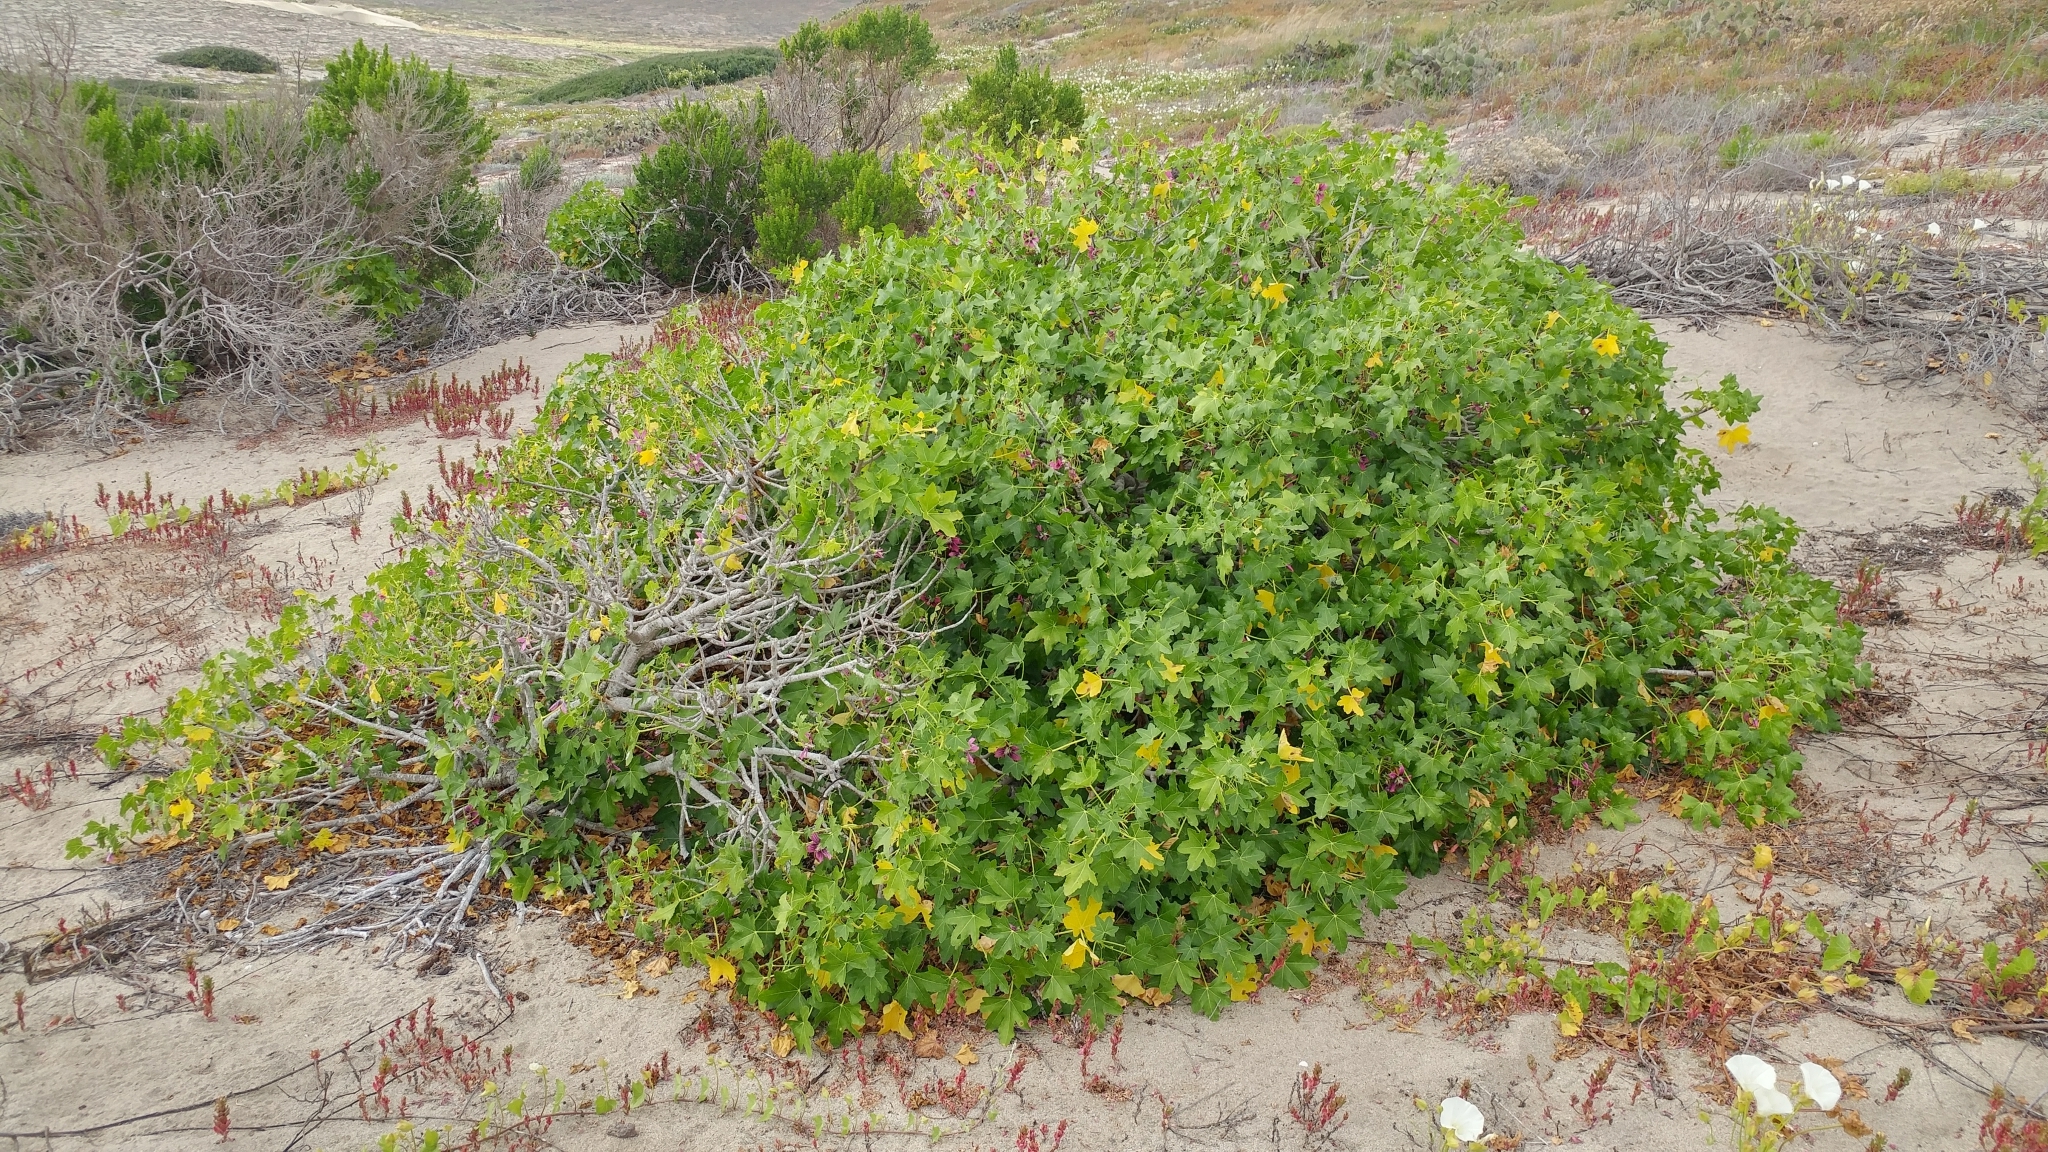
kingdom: Plantae
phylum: Tracheophyta
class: Magnoliopsida
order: Malvales
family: Malvaceae
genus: Malva
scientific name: Malva assurgentiflora
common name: Island mallow
